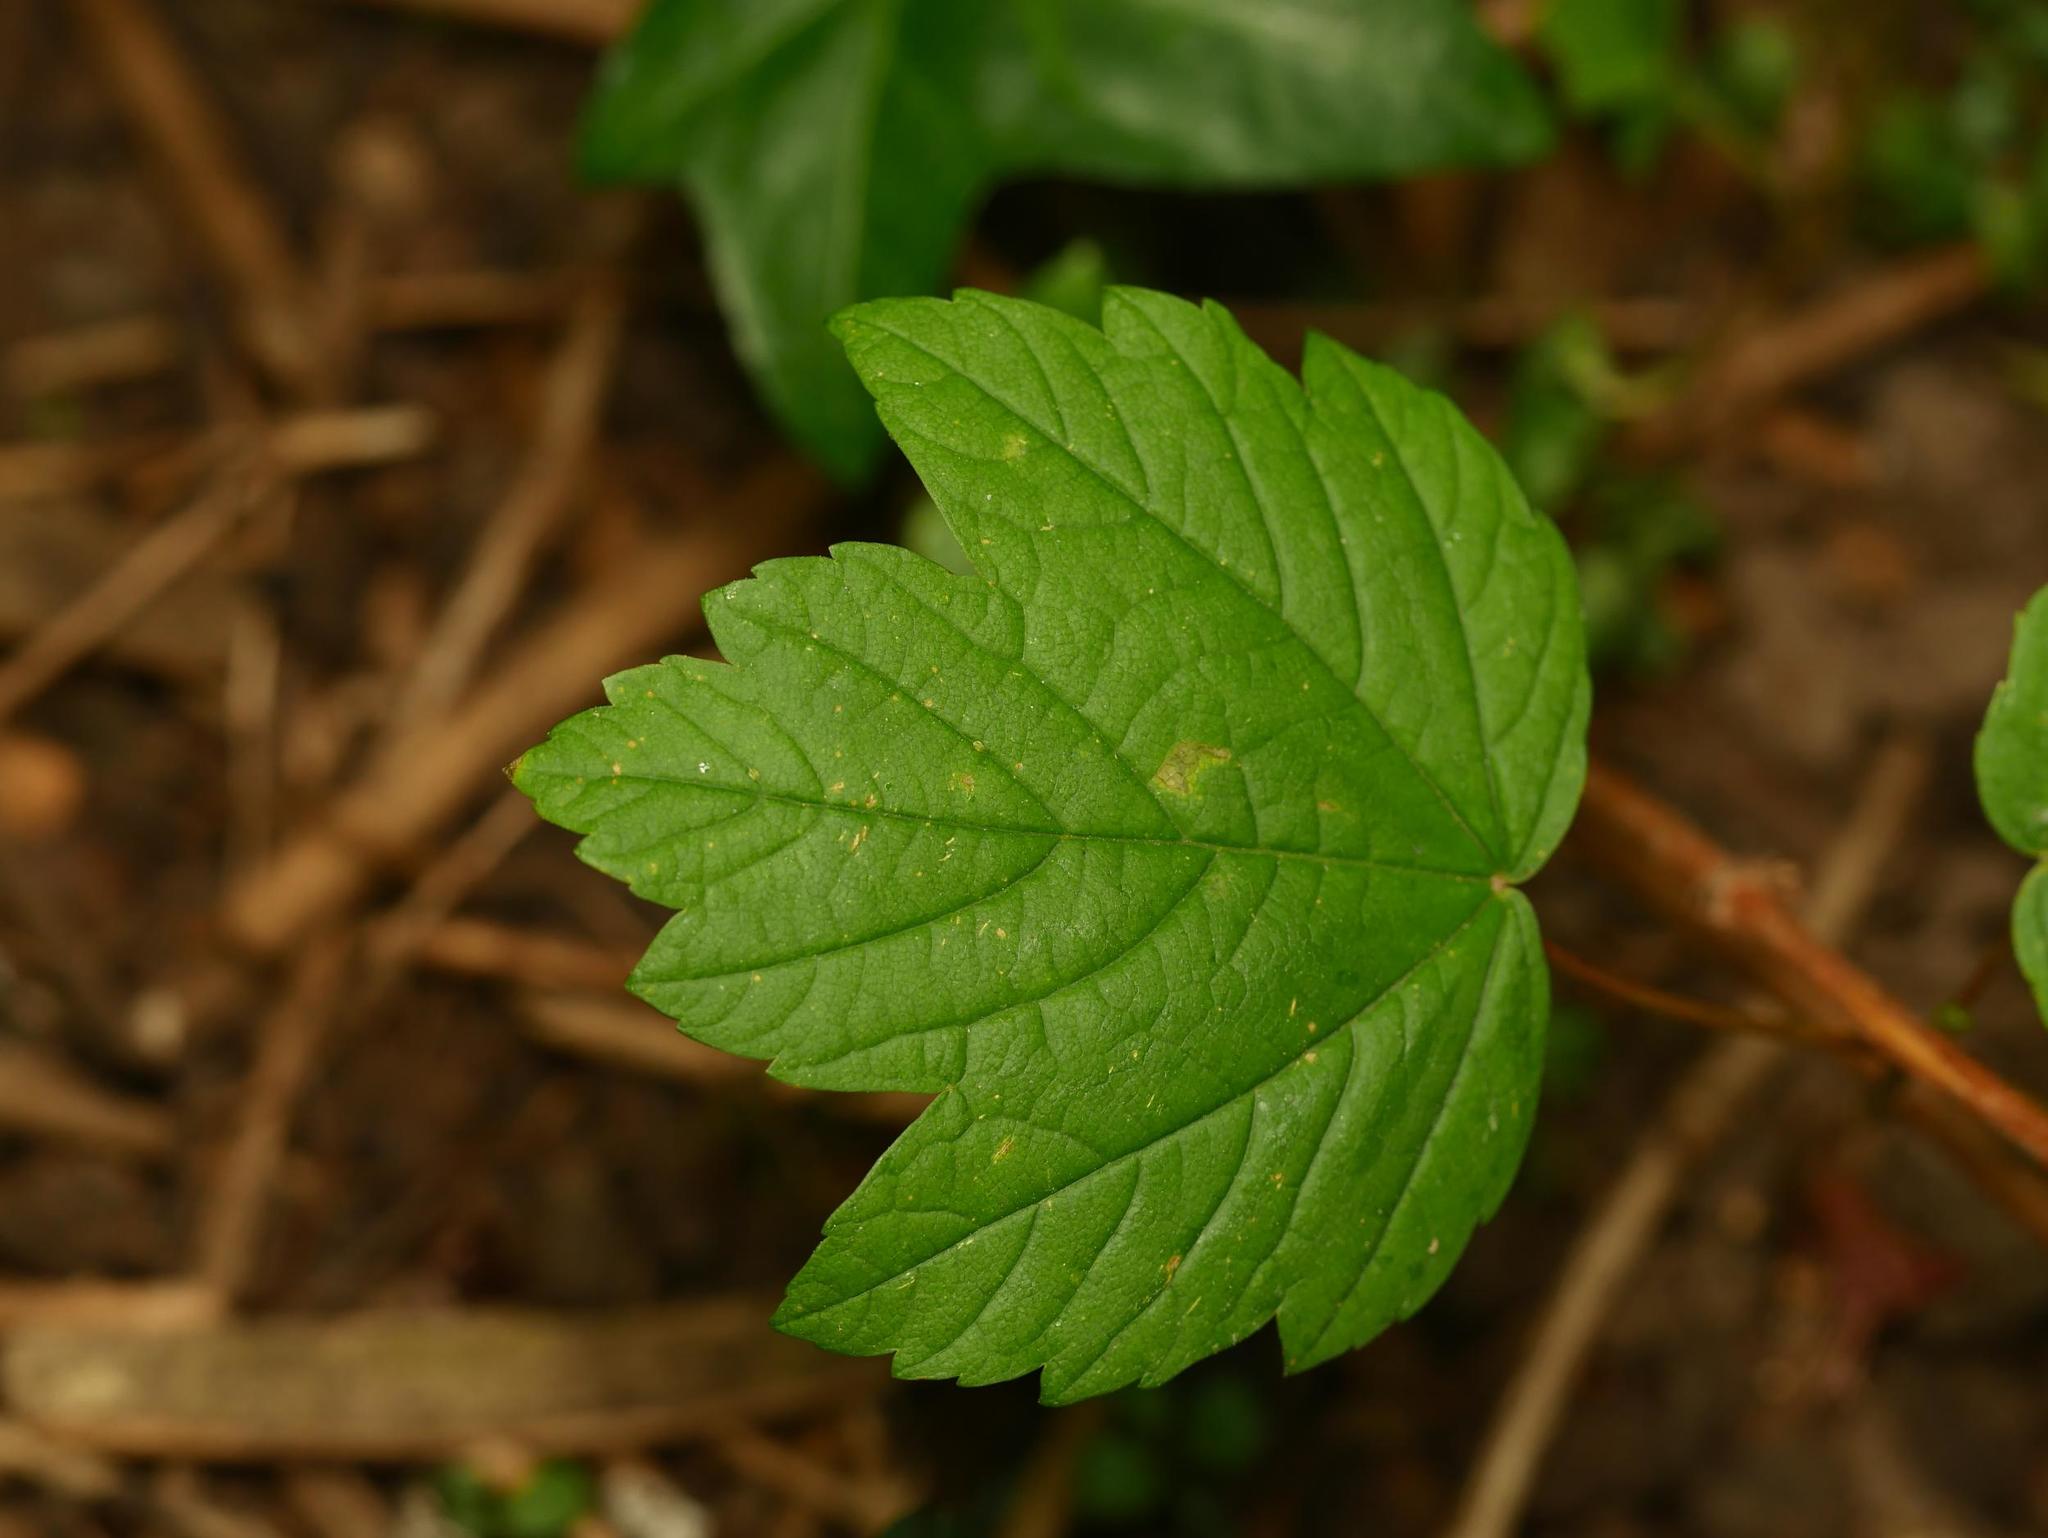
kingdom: Plantae
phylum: Tracheophyta
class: Magnoliopsida
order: Sapindales
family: Sapindaceae
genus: Acer
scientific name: Acer pseudoplatanus
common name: Sycamore
